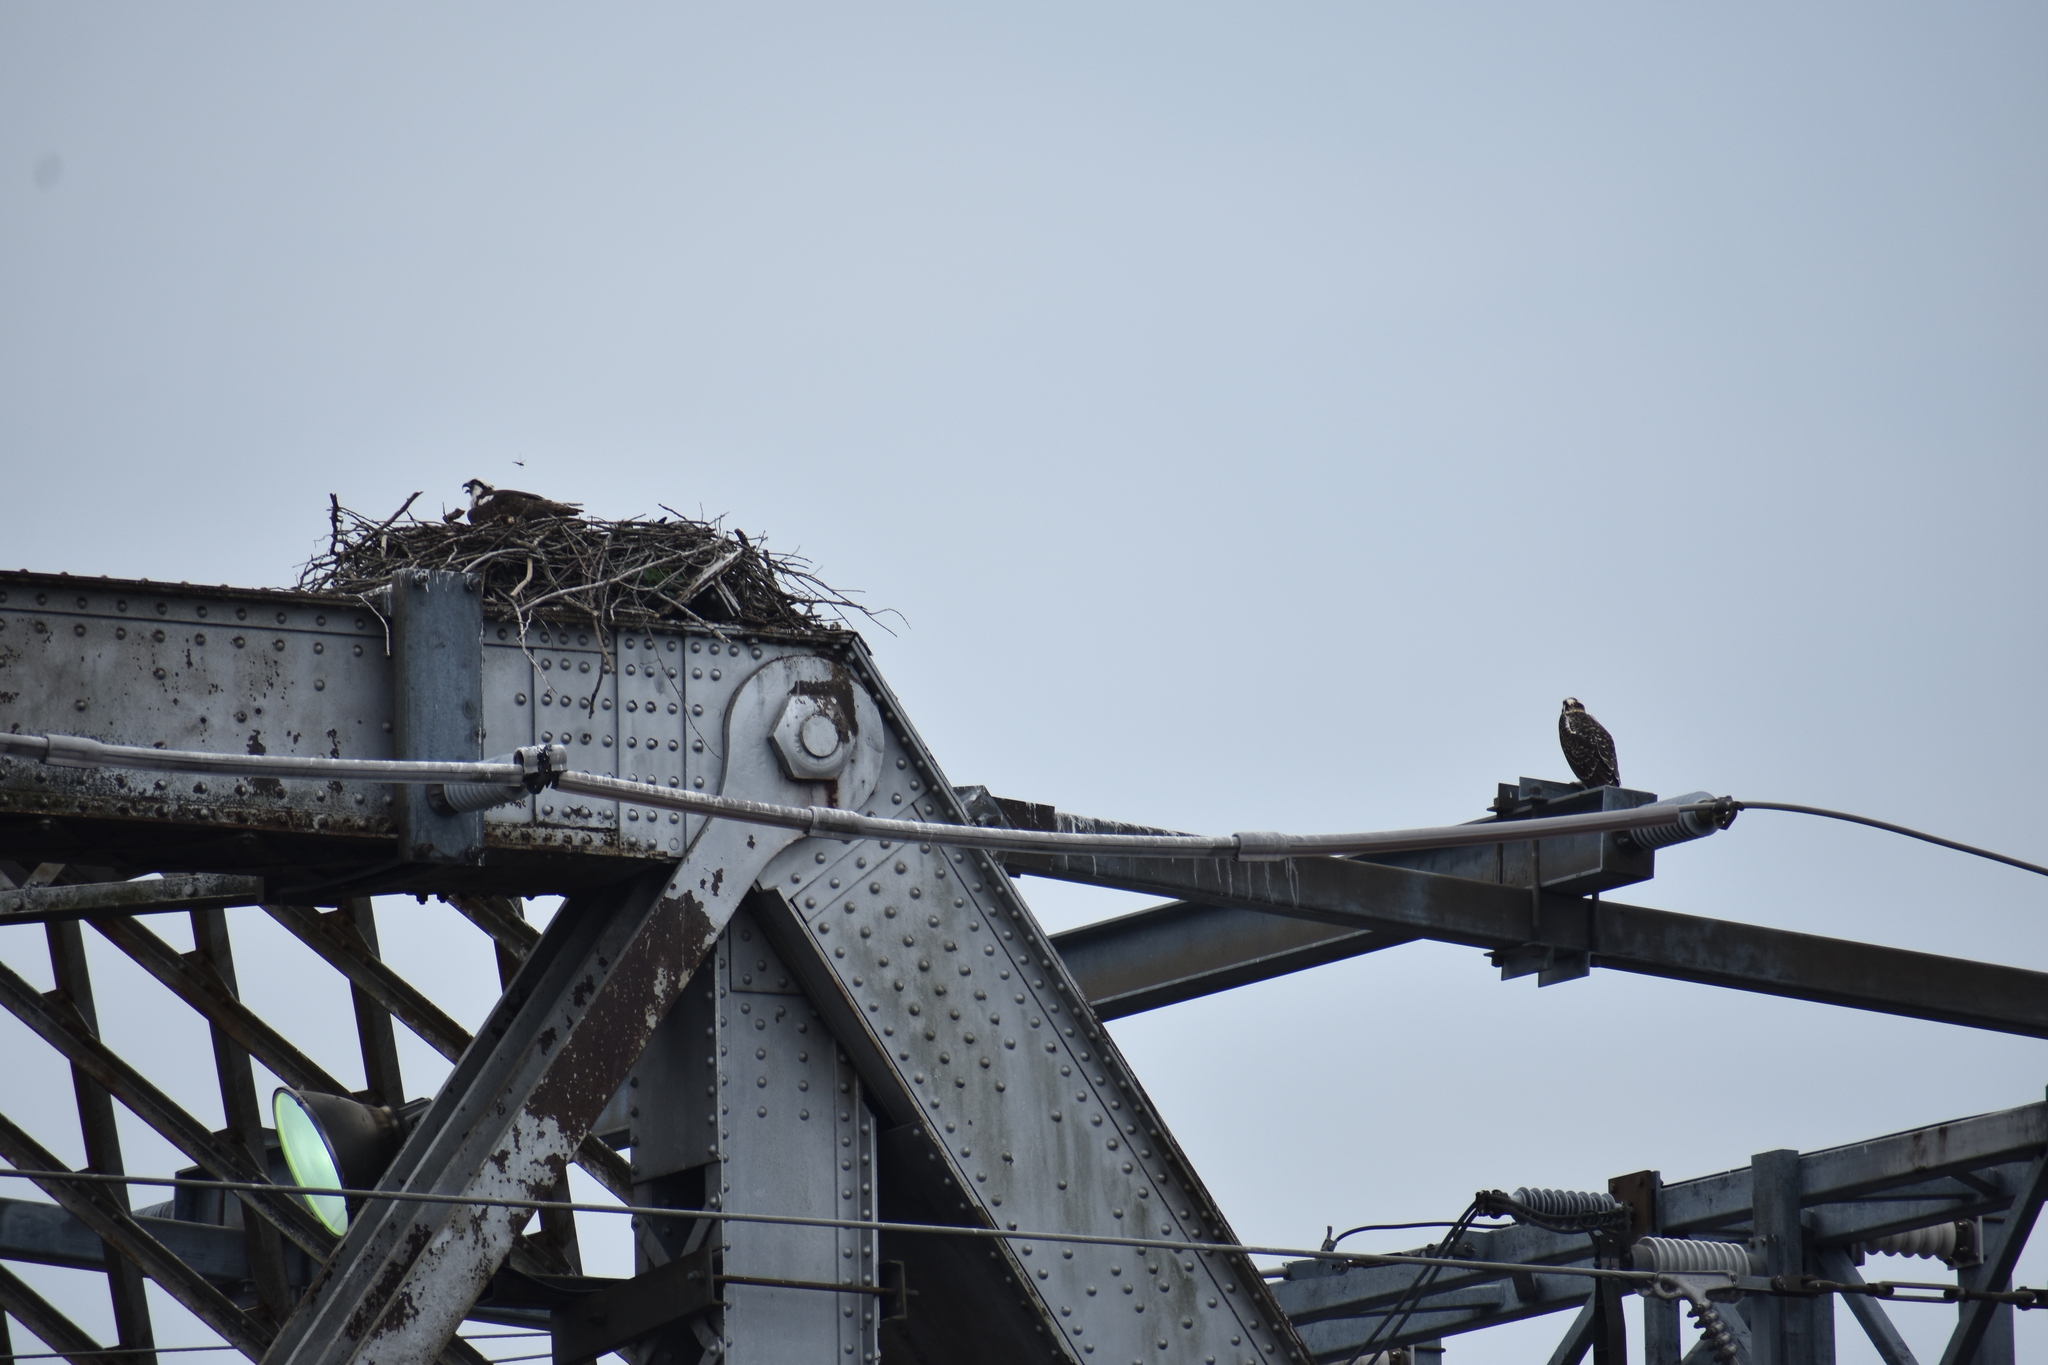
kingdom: Animalia
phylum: Chordata
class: Aves
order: Accipitriformes
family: Pandionidae
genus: Pandion
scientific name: Pandion haliaetus
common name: Osprey
